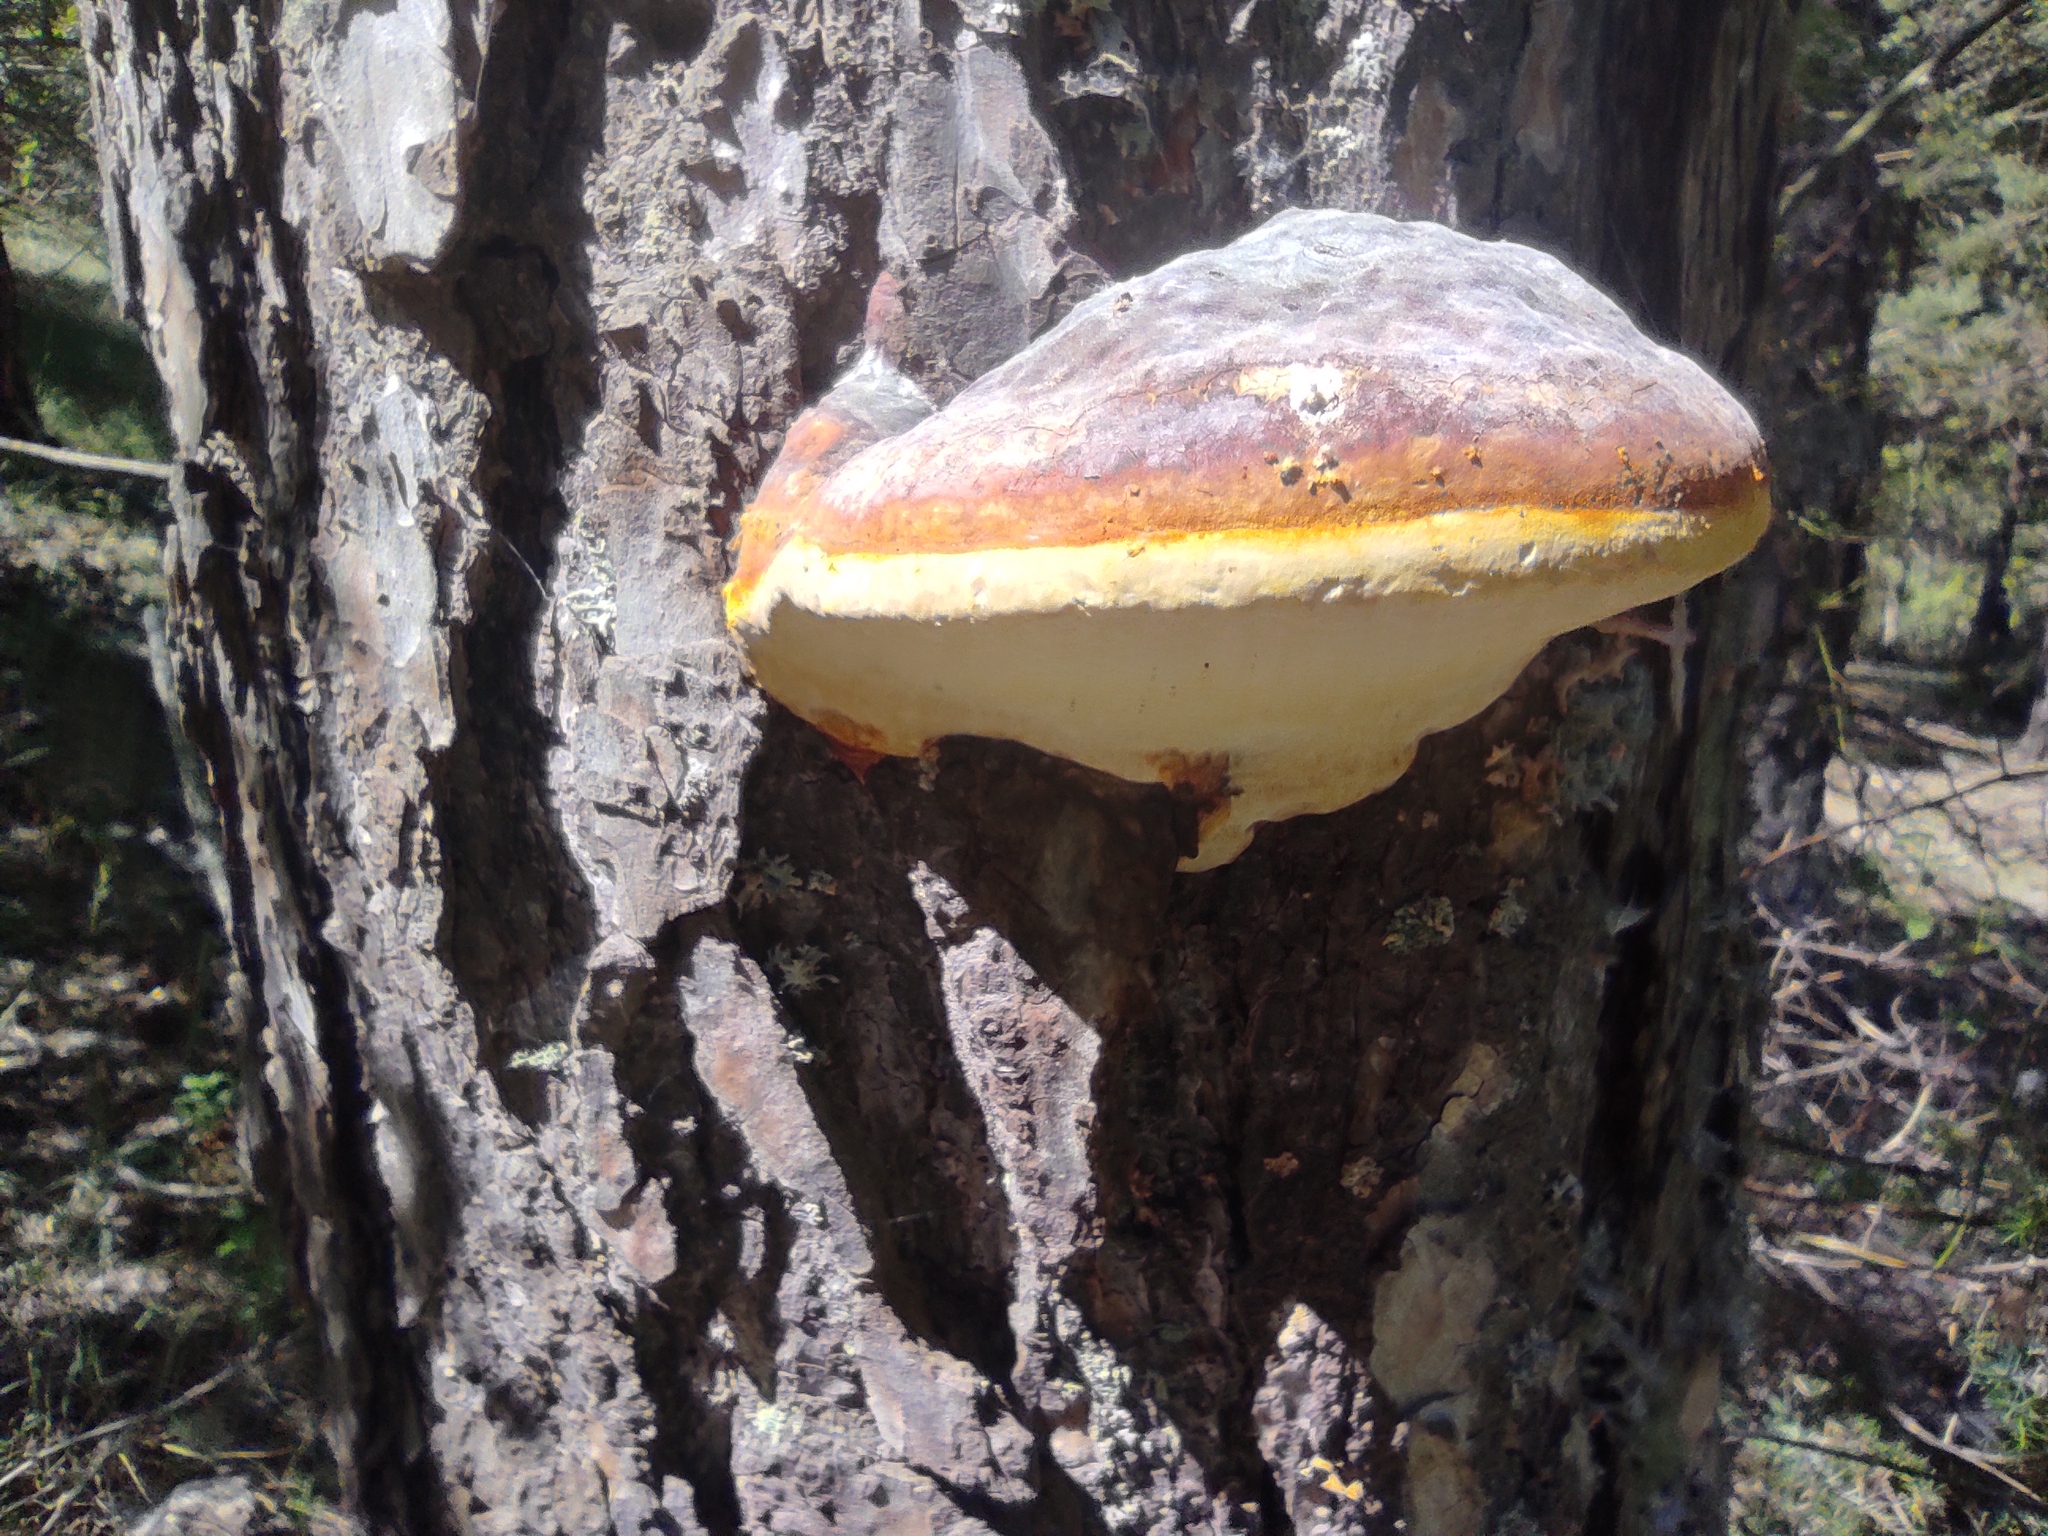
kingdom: Fungi
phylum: Basidiomycota
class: Agaricomycetes
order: Polyporales
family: Fomitopsidaceae
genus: Fomitopsis
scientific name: Fomitopsis pinicola
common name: Red-belted bracket
